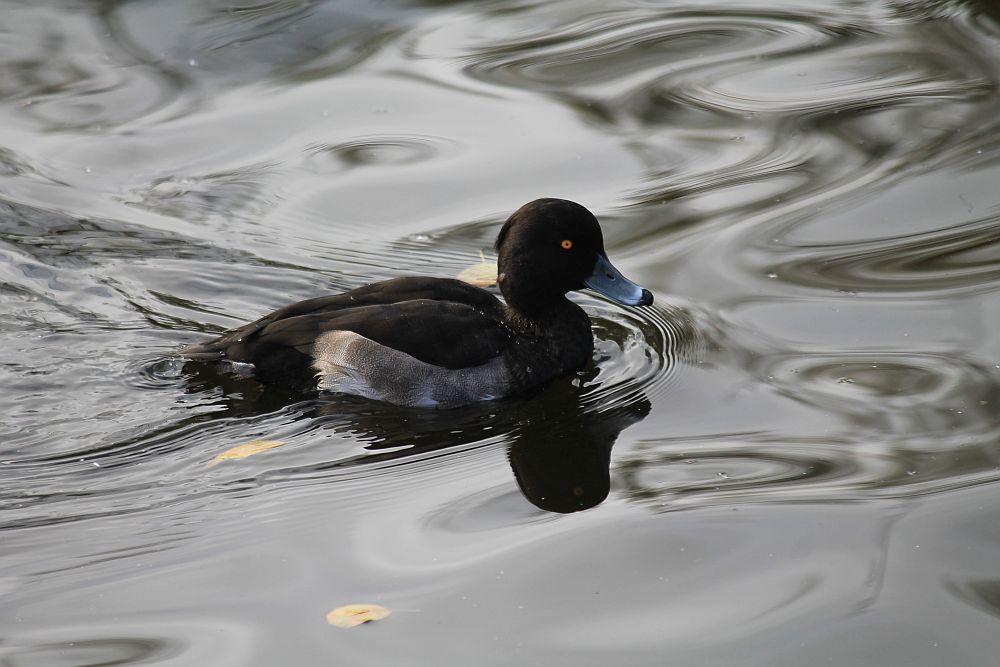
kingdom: Animalia
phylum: Chordata
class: Aves
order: Anseriformes
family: Anatidae
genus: Aythya
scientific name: Aythya fuligula
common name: Tufted duck
